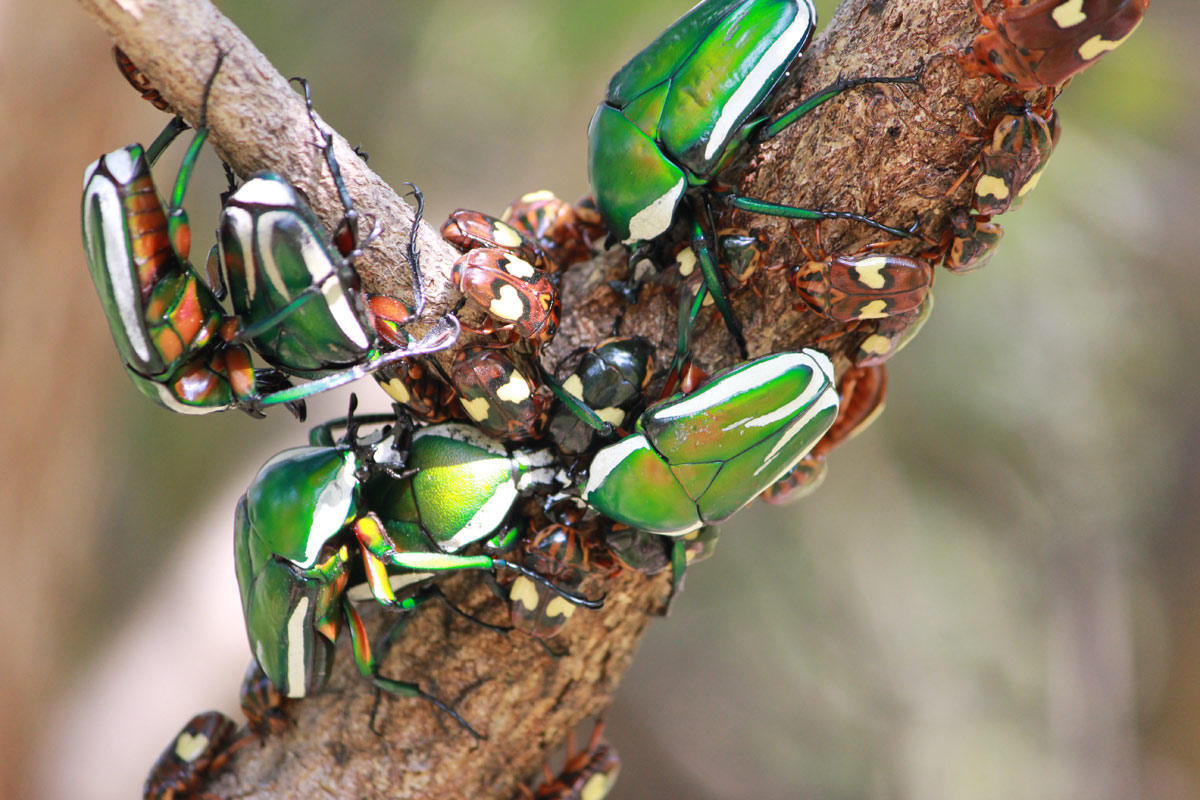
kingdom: Animalia
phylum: Arthropoda
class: Insecta
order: Coleoptera
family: Scarabaeidae
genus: Dicronorhina
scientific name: Dicronorhina derbyana
